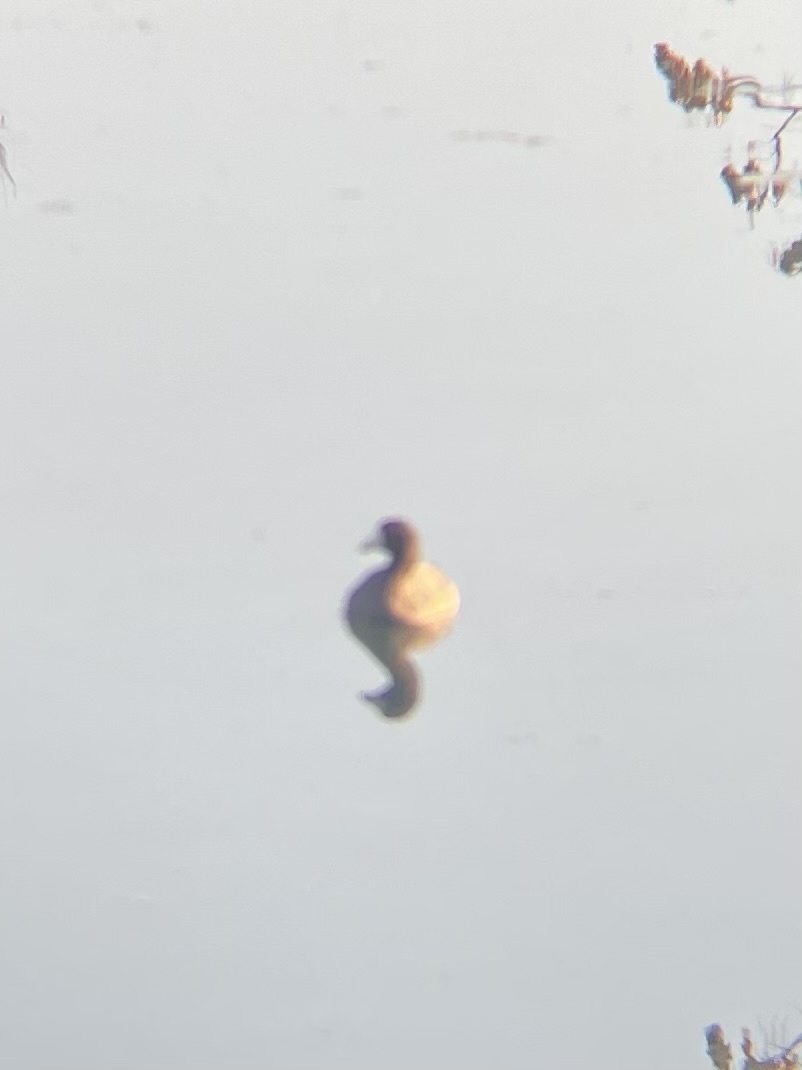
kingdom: Animalia
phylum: Chordata
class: Aves
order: Gruiformes
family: Rallidae
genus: Fulica
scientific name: Fulica americana
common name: American coot
